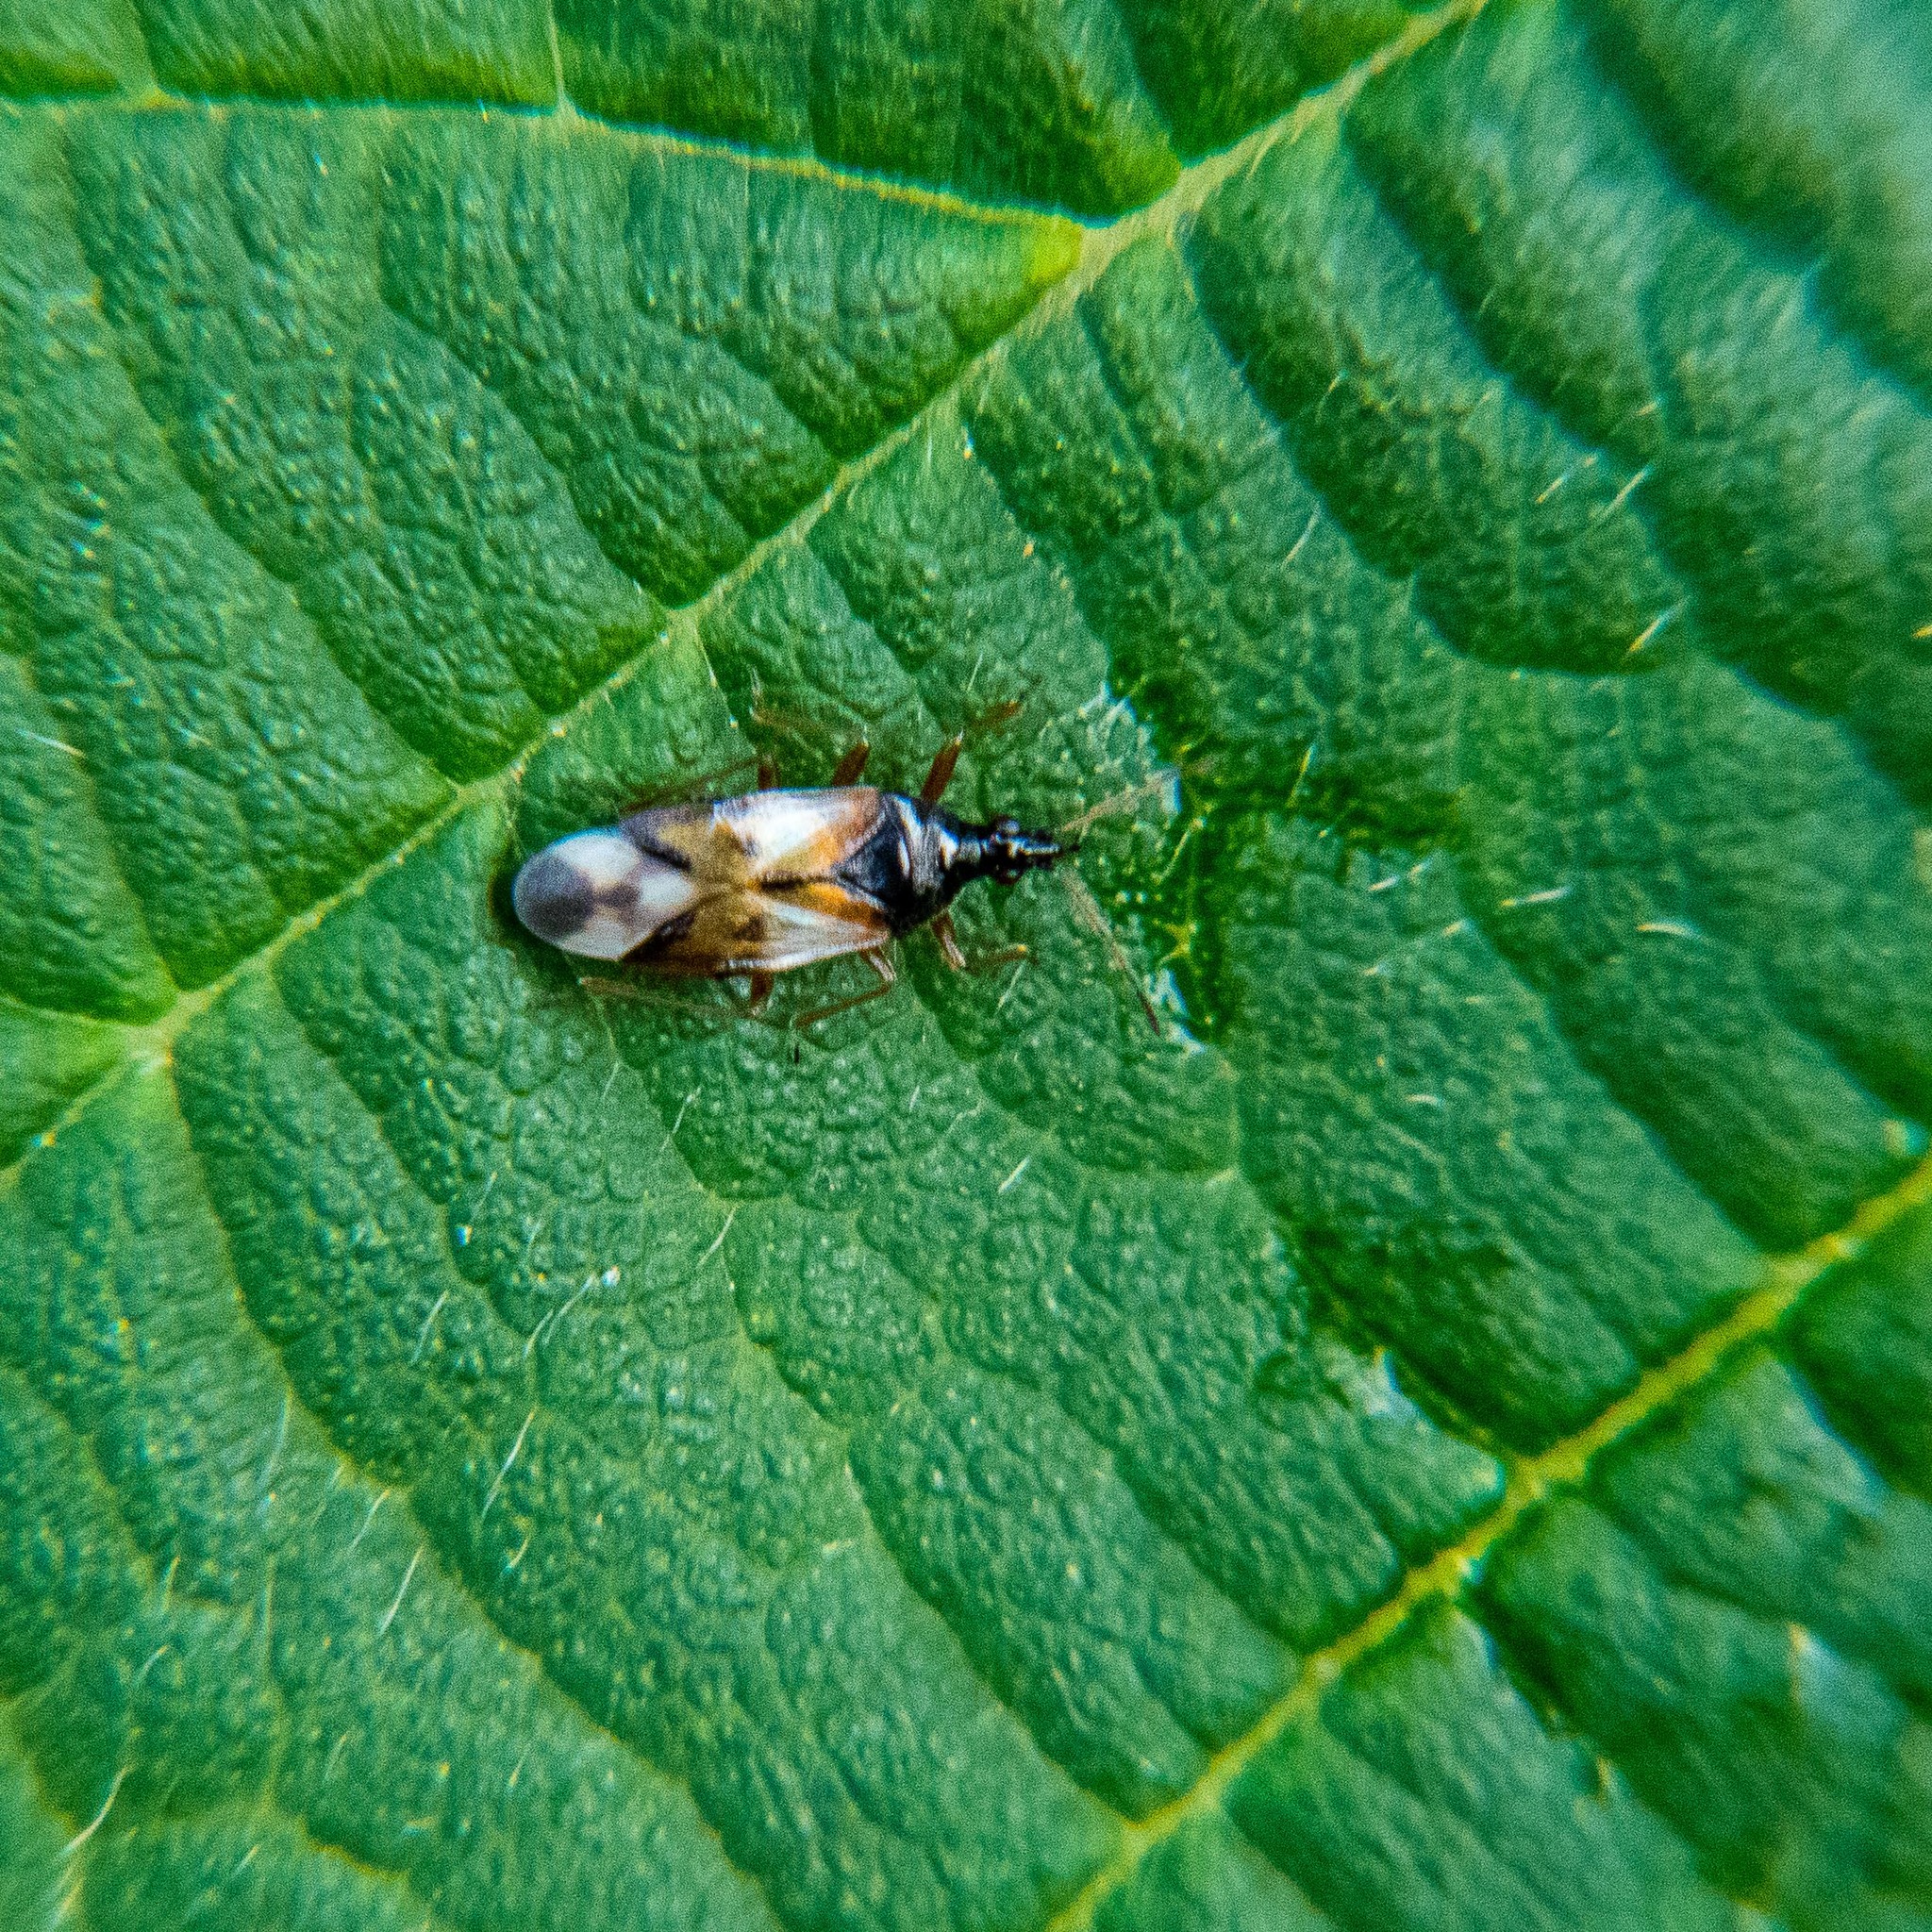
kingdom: Animalia
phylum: Arthropoda
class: Insecta
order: Hemiptera
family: Anthocoridae
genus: Anthocoris
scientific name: Anthocoris nemorum
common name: Minute pirate bug
